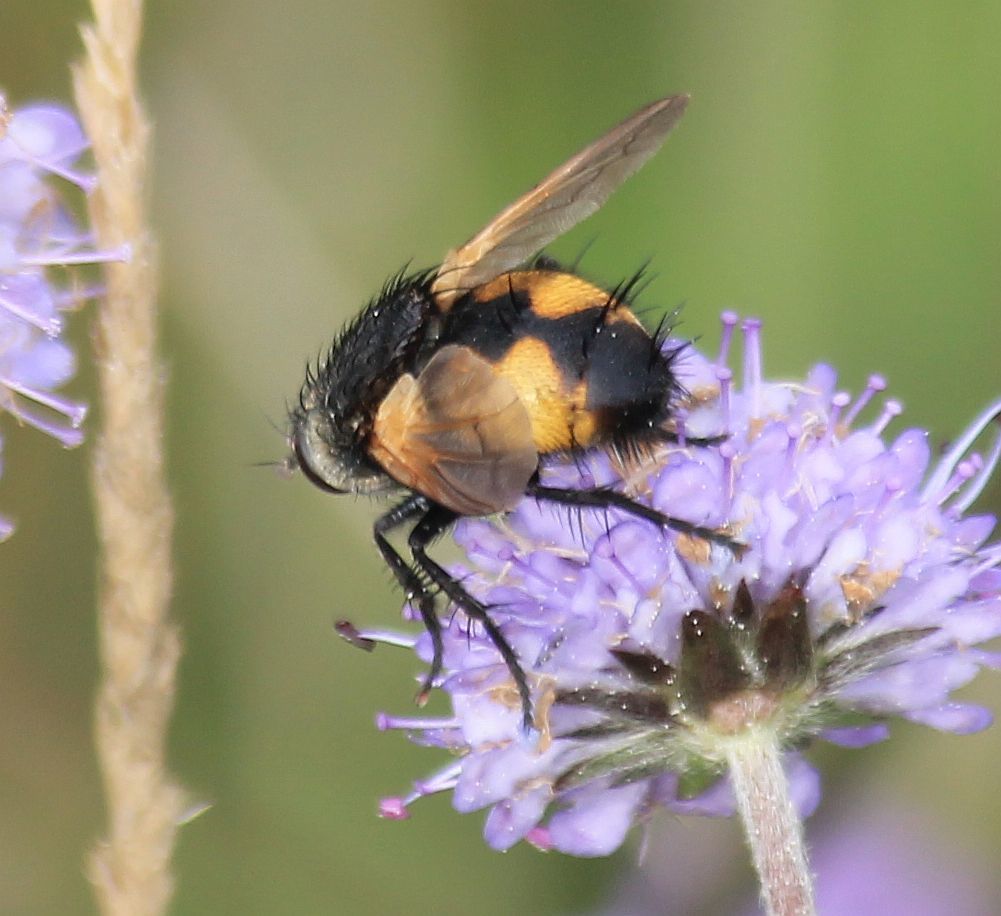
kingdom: Animalia
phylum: Arthropoda
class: Insecta
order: Diptera
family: Tachinidae
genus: Nowickia
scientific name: Nowickia ferox
